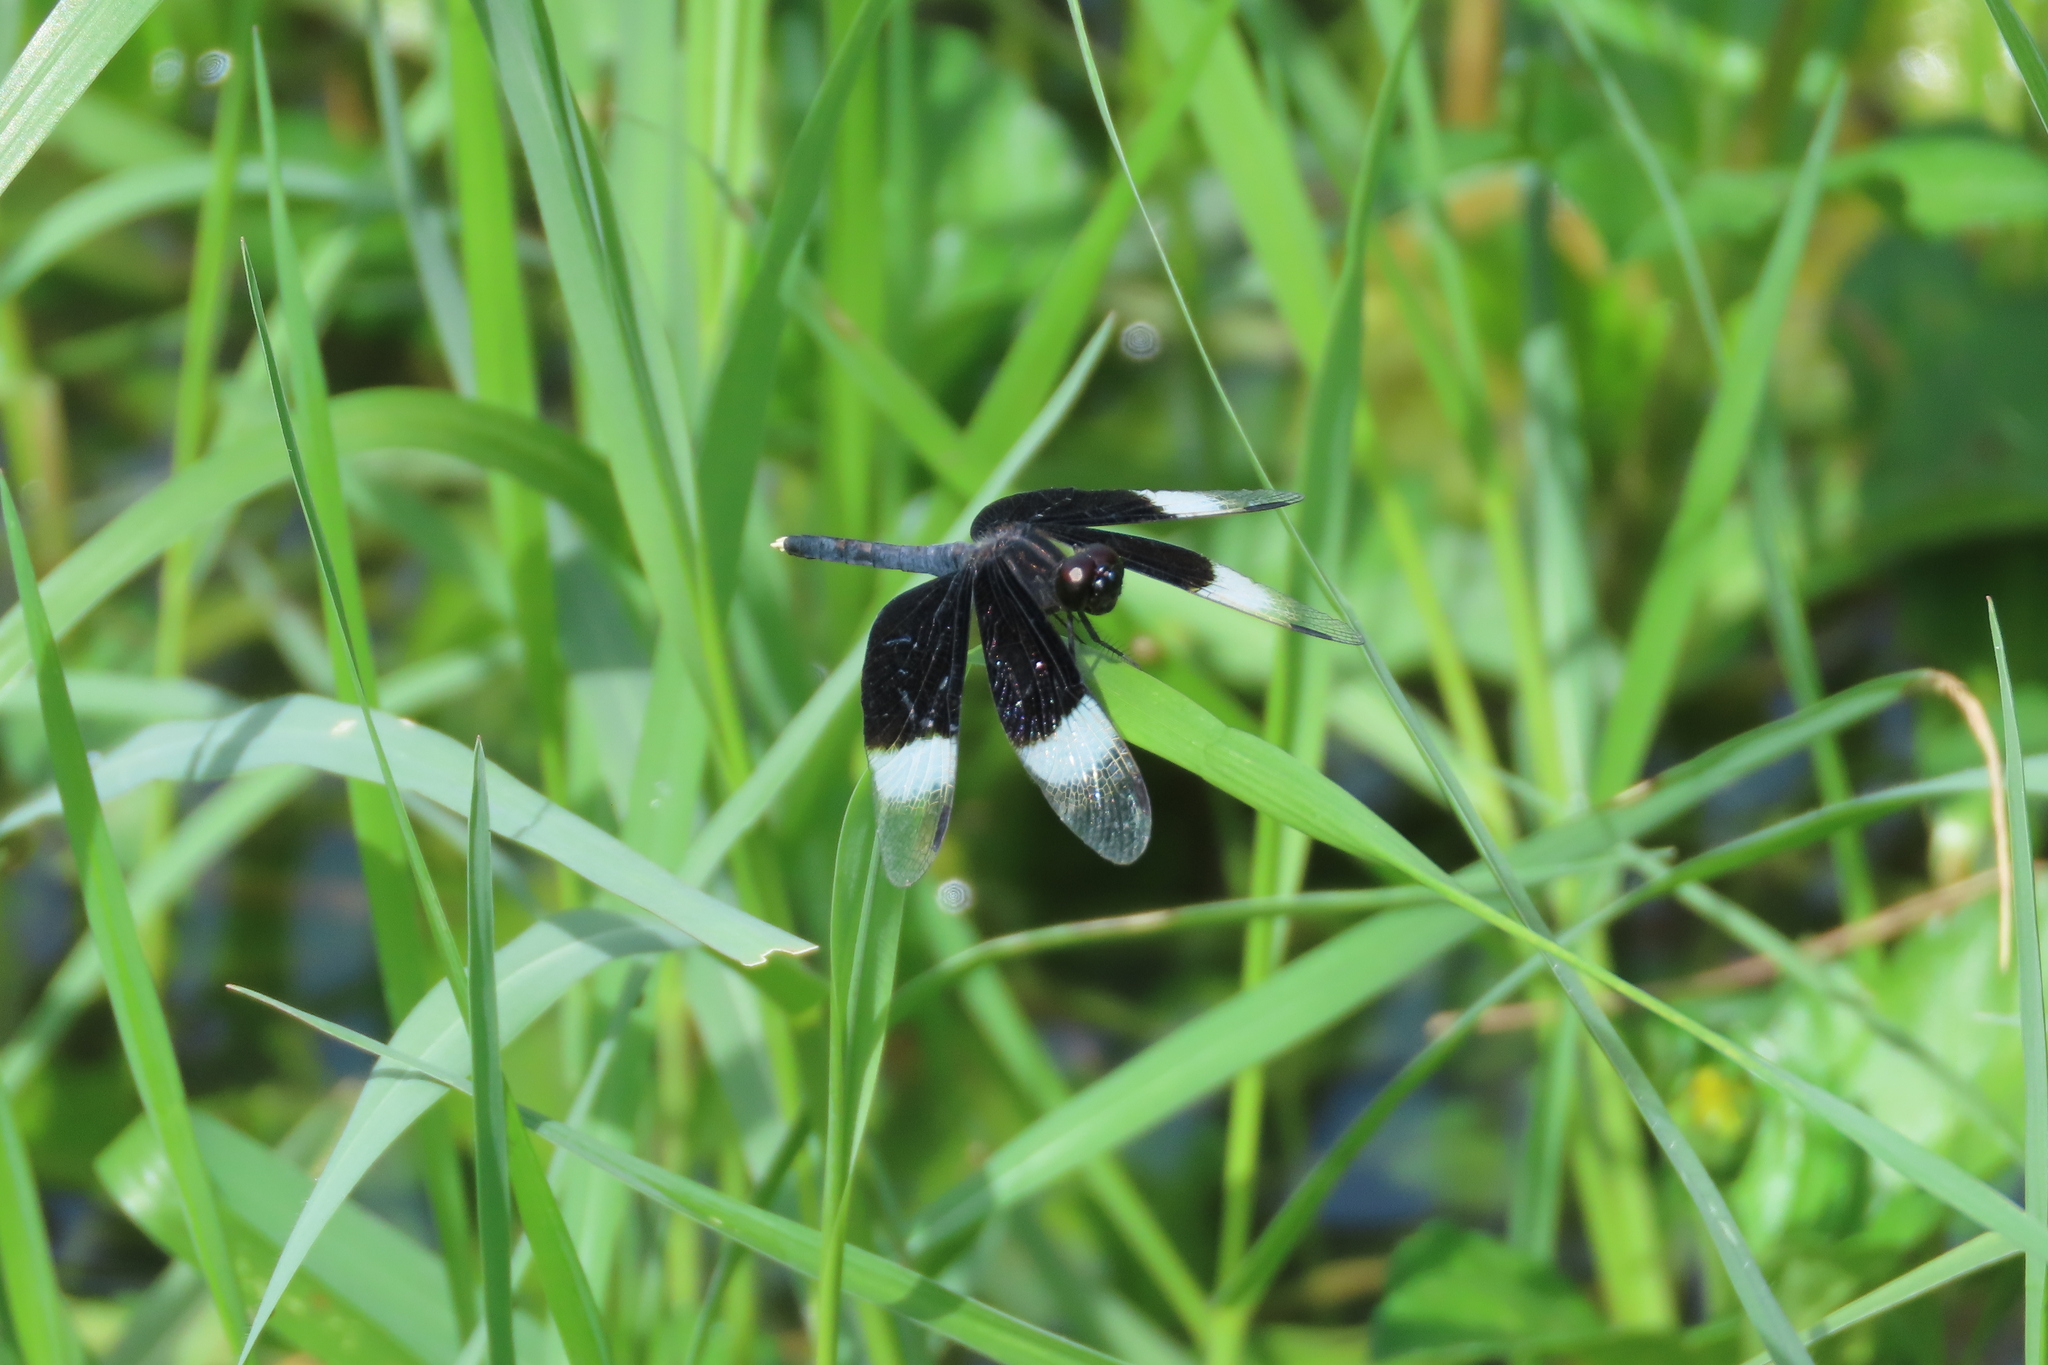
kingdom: Animalia
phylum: Arthropoda
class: Insecta
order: Odonata
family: Libellulidae
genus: Neurothemis
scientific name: Neurothemis tullia
